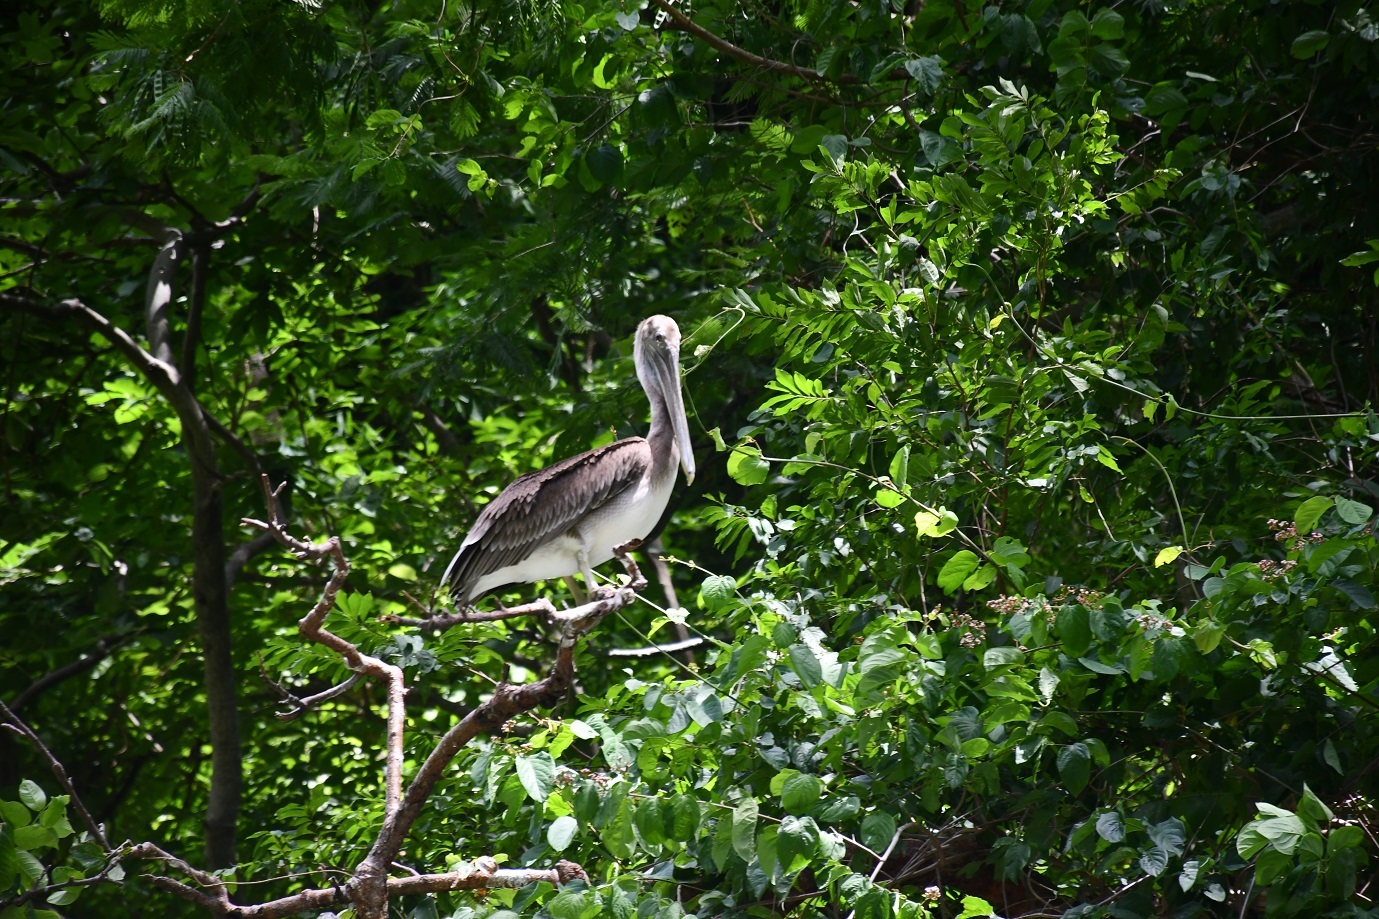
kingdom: Animalia
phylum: Chordata
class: Aves
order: Pelecaniformes
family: Pelecanidae
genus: Pelecanus
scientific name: Pelecanus occidentalis
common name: Brown pelican
